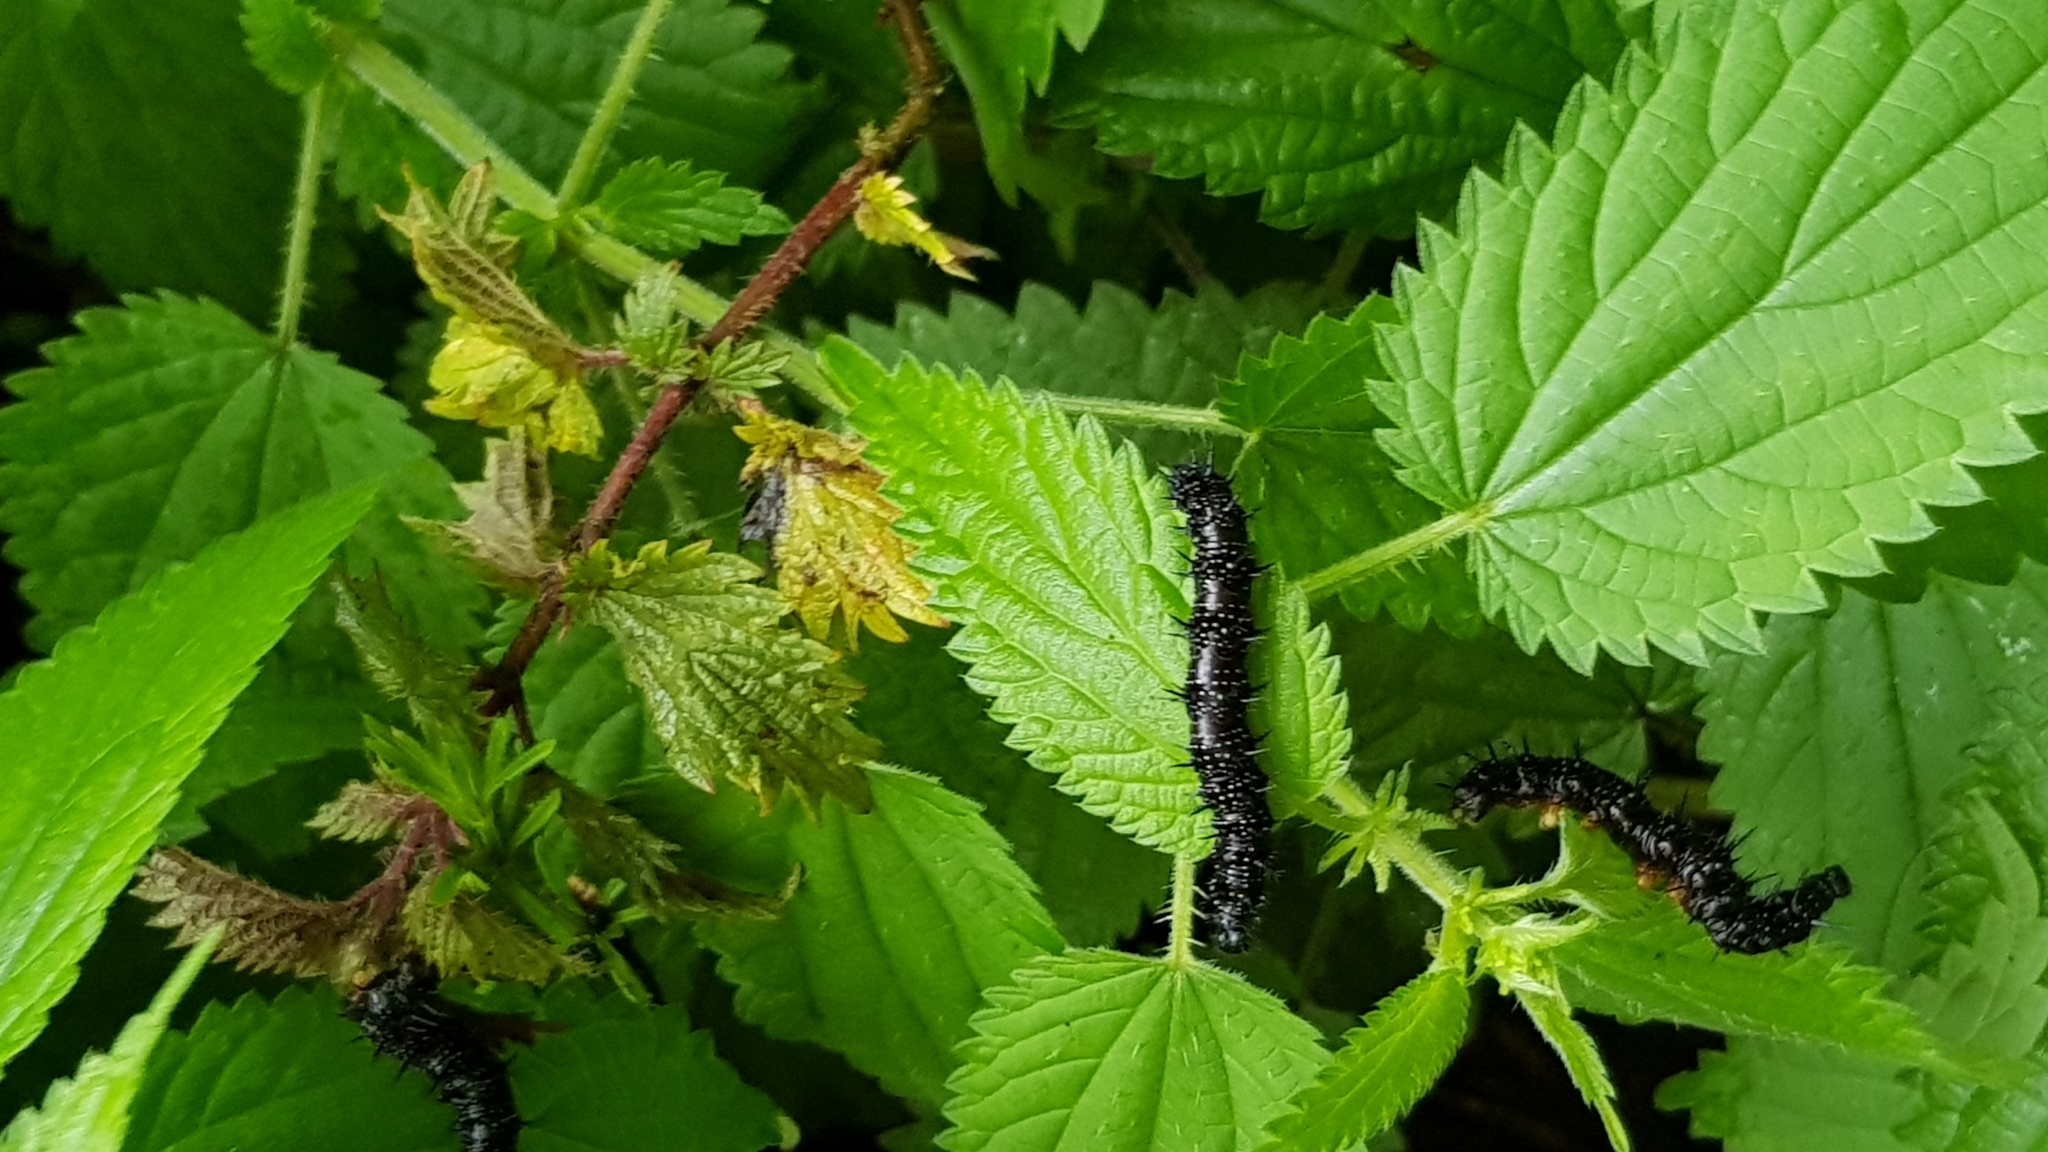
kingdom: Animalia
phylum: Arthropoda
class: Insecta
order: Lepidoptera
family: Nymphalidae
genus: Aglais
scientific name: Aglais io
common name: Peacock
